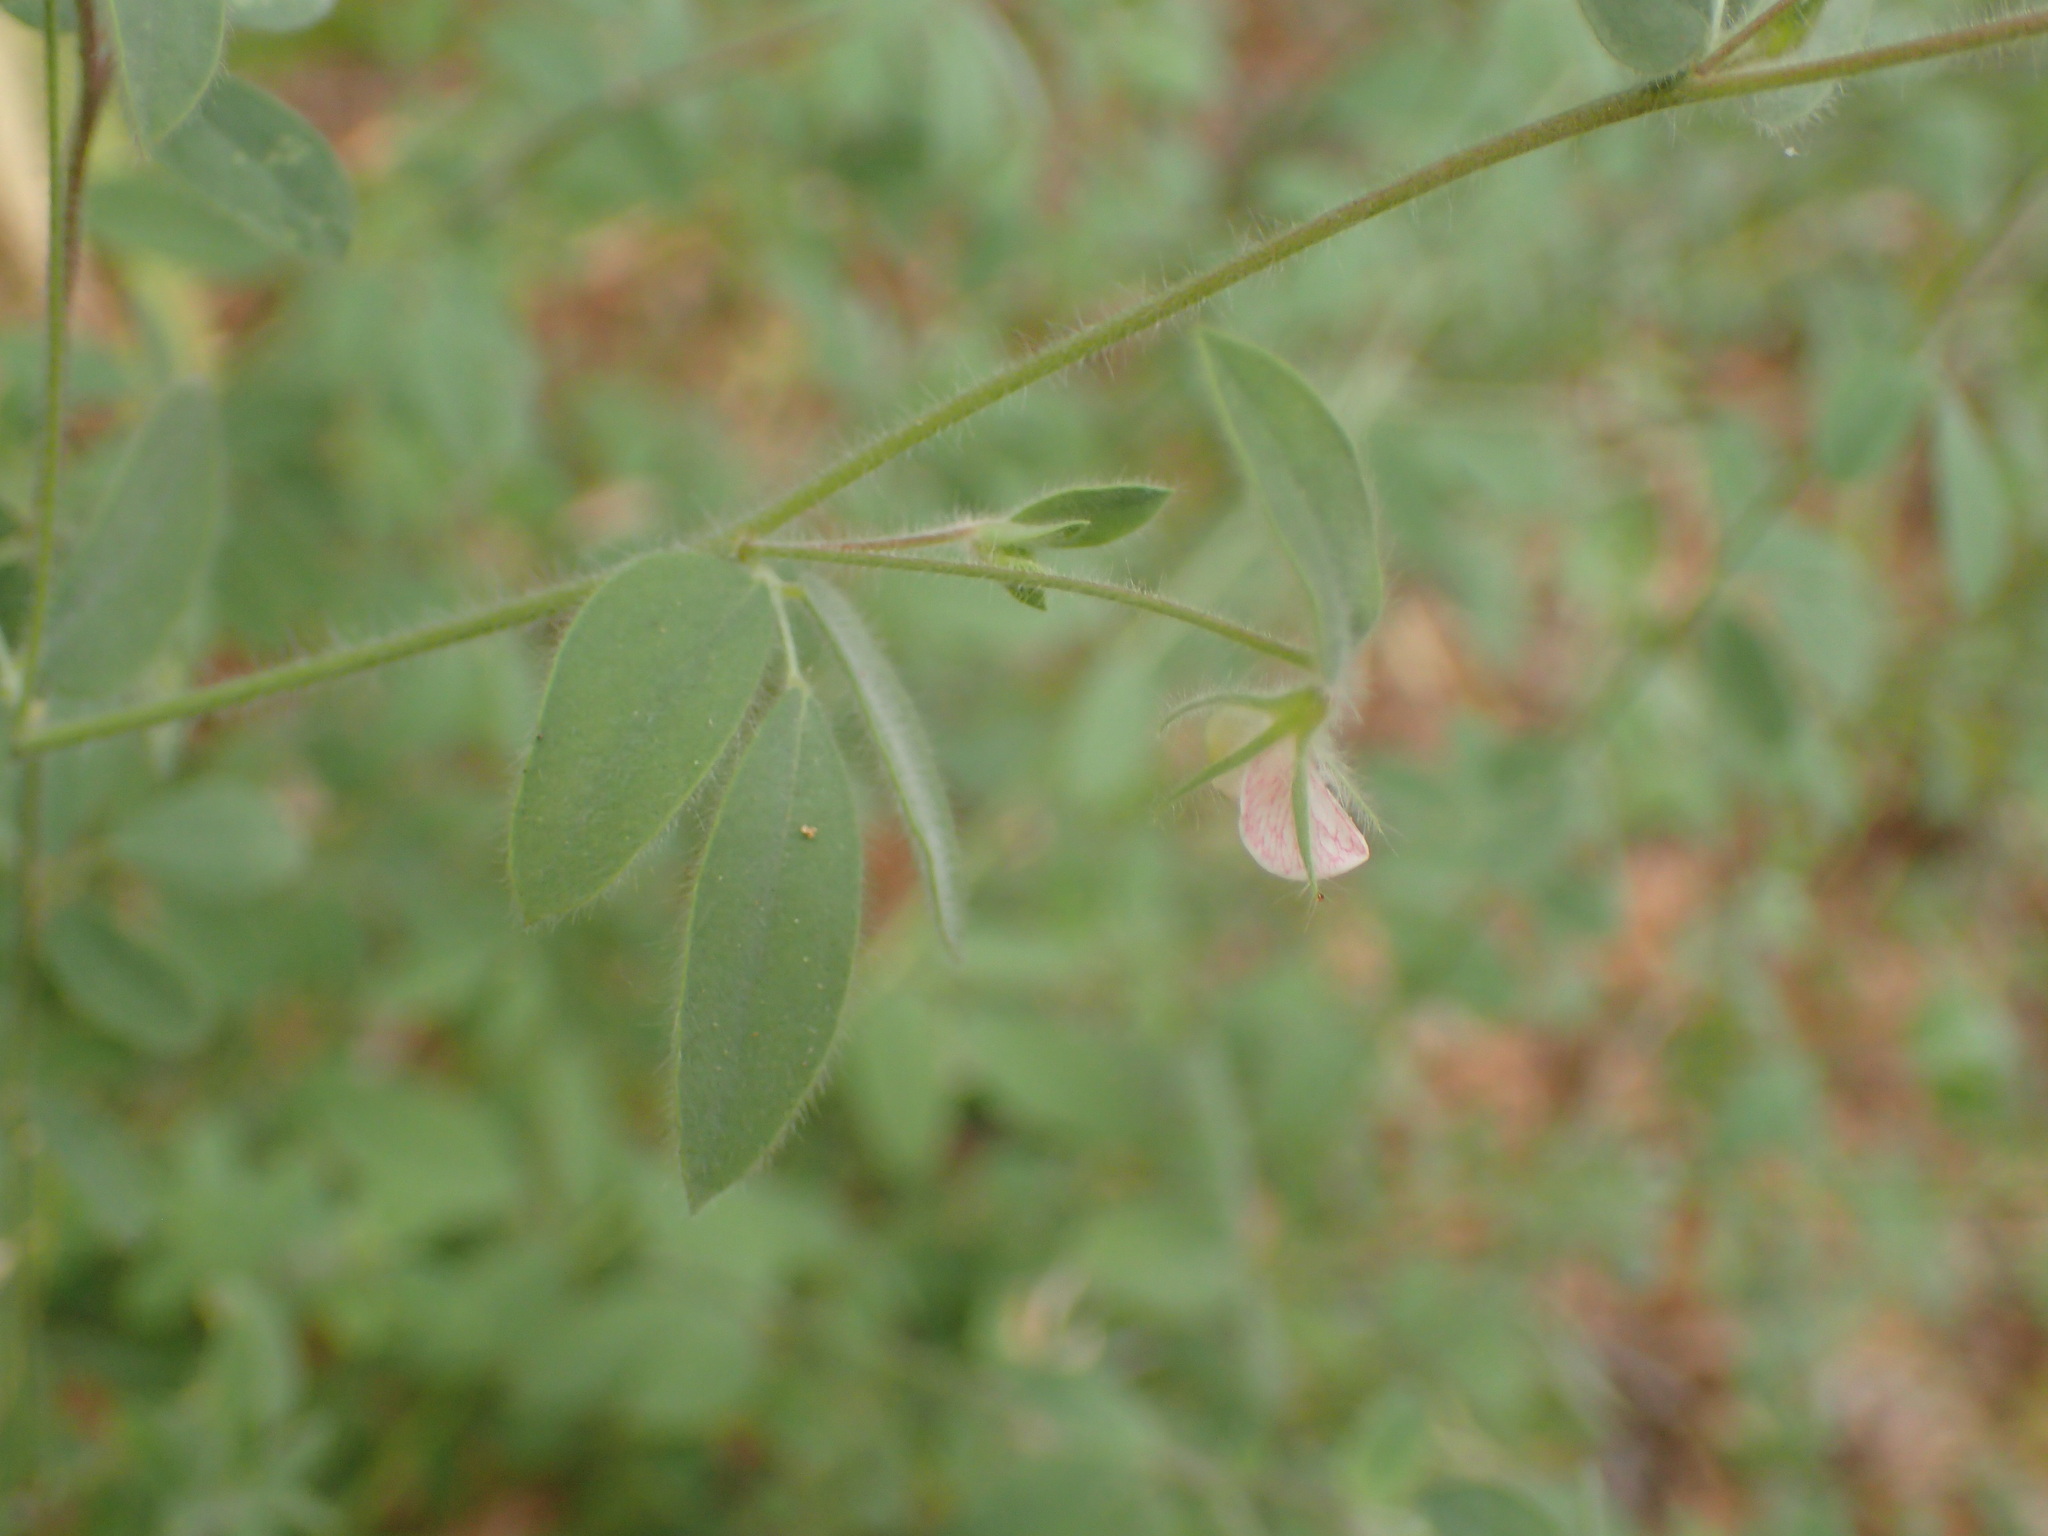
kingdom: Plantae
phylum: Tracheophyta
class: Magnoliopsida
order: Fabales
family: Fabaceae
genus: Acmispon
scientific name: Acmispon americanus
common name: American bird's-foot trefoil
